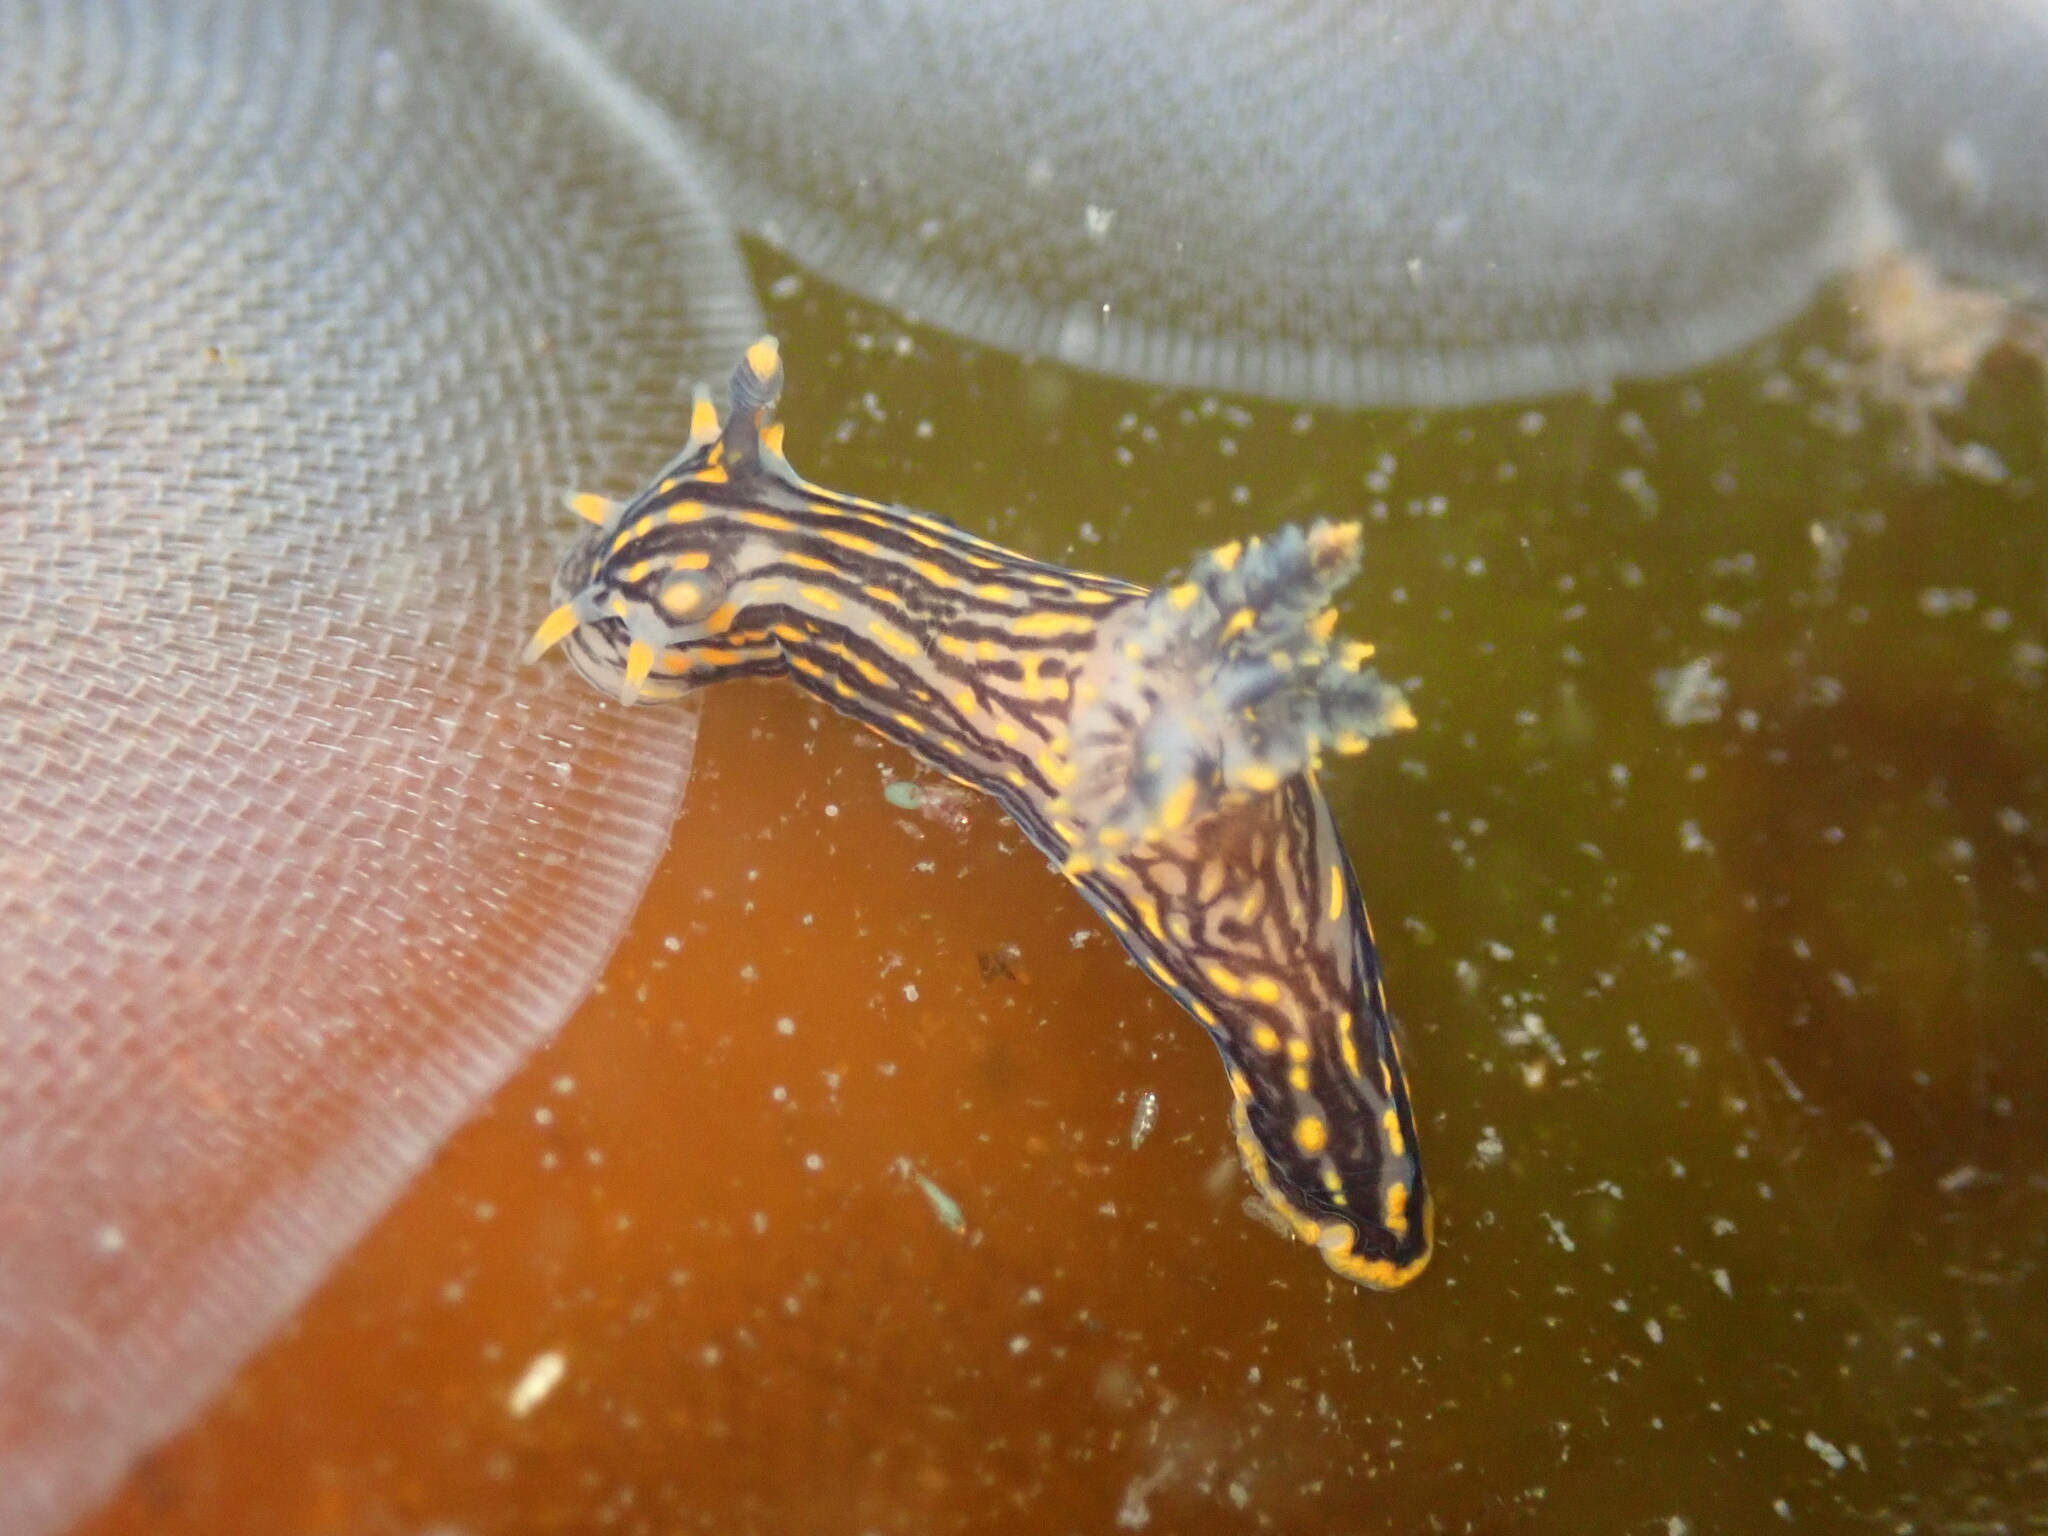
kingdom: Animalia
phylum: Mollusca
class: Gastropoda
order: Nudibranchia
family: Polyceridae
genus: Polycera
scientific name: Polycera atra
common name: Orange-spike polycera
